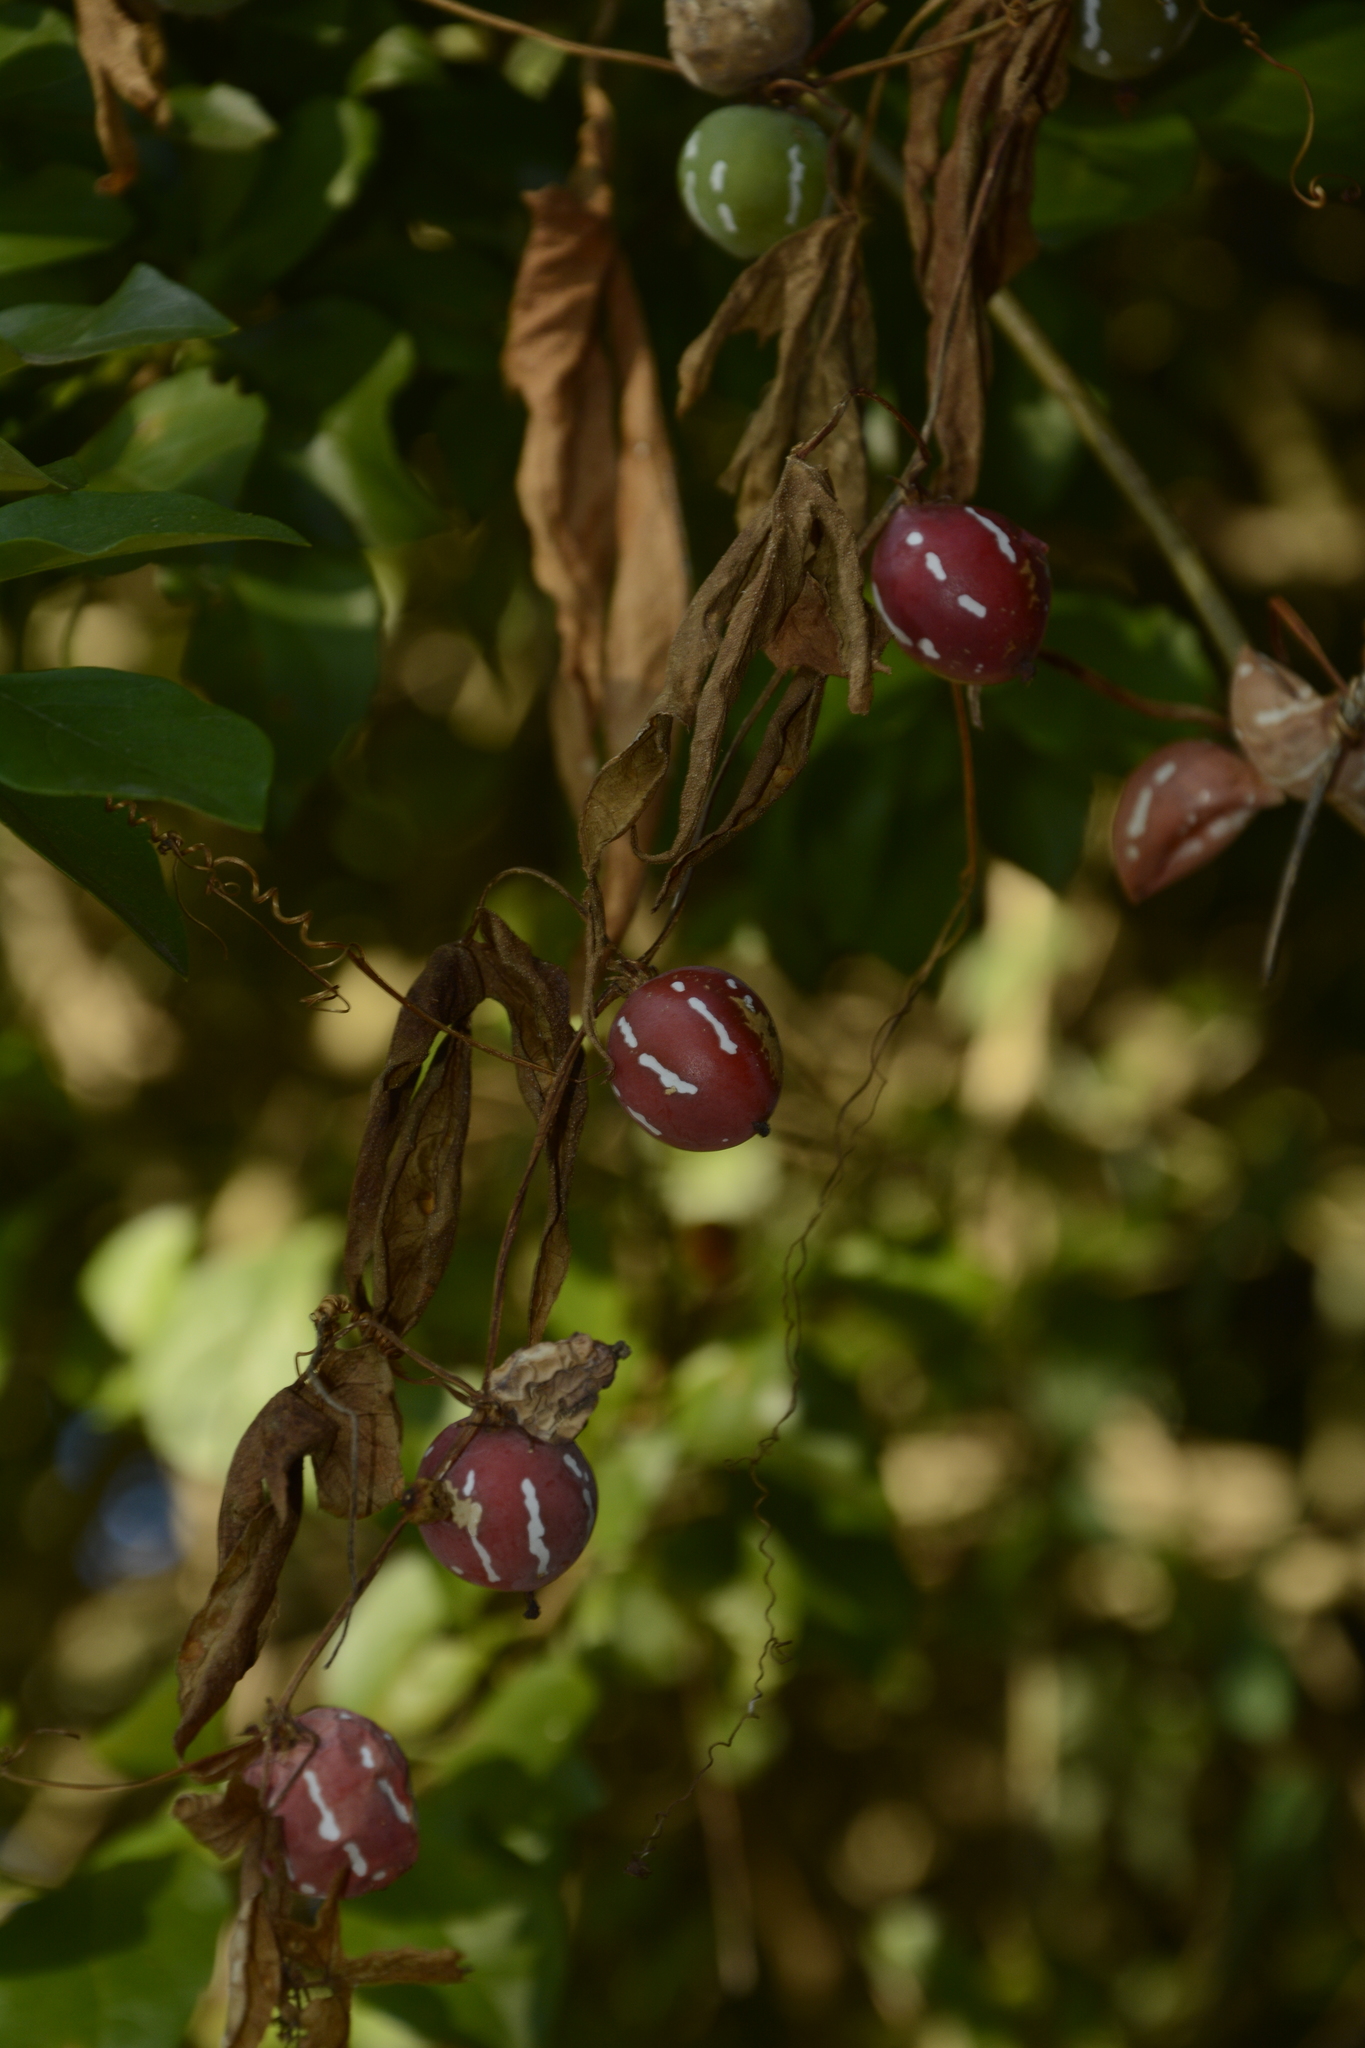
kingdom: Plantae
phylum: Tracheophyta
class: Magnoliopsida
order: Cucurbitales
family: Cucurbitaceae
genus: Diplocyclos
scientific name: Diplocyclos palmatus
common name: Striped-cucumber
